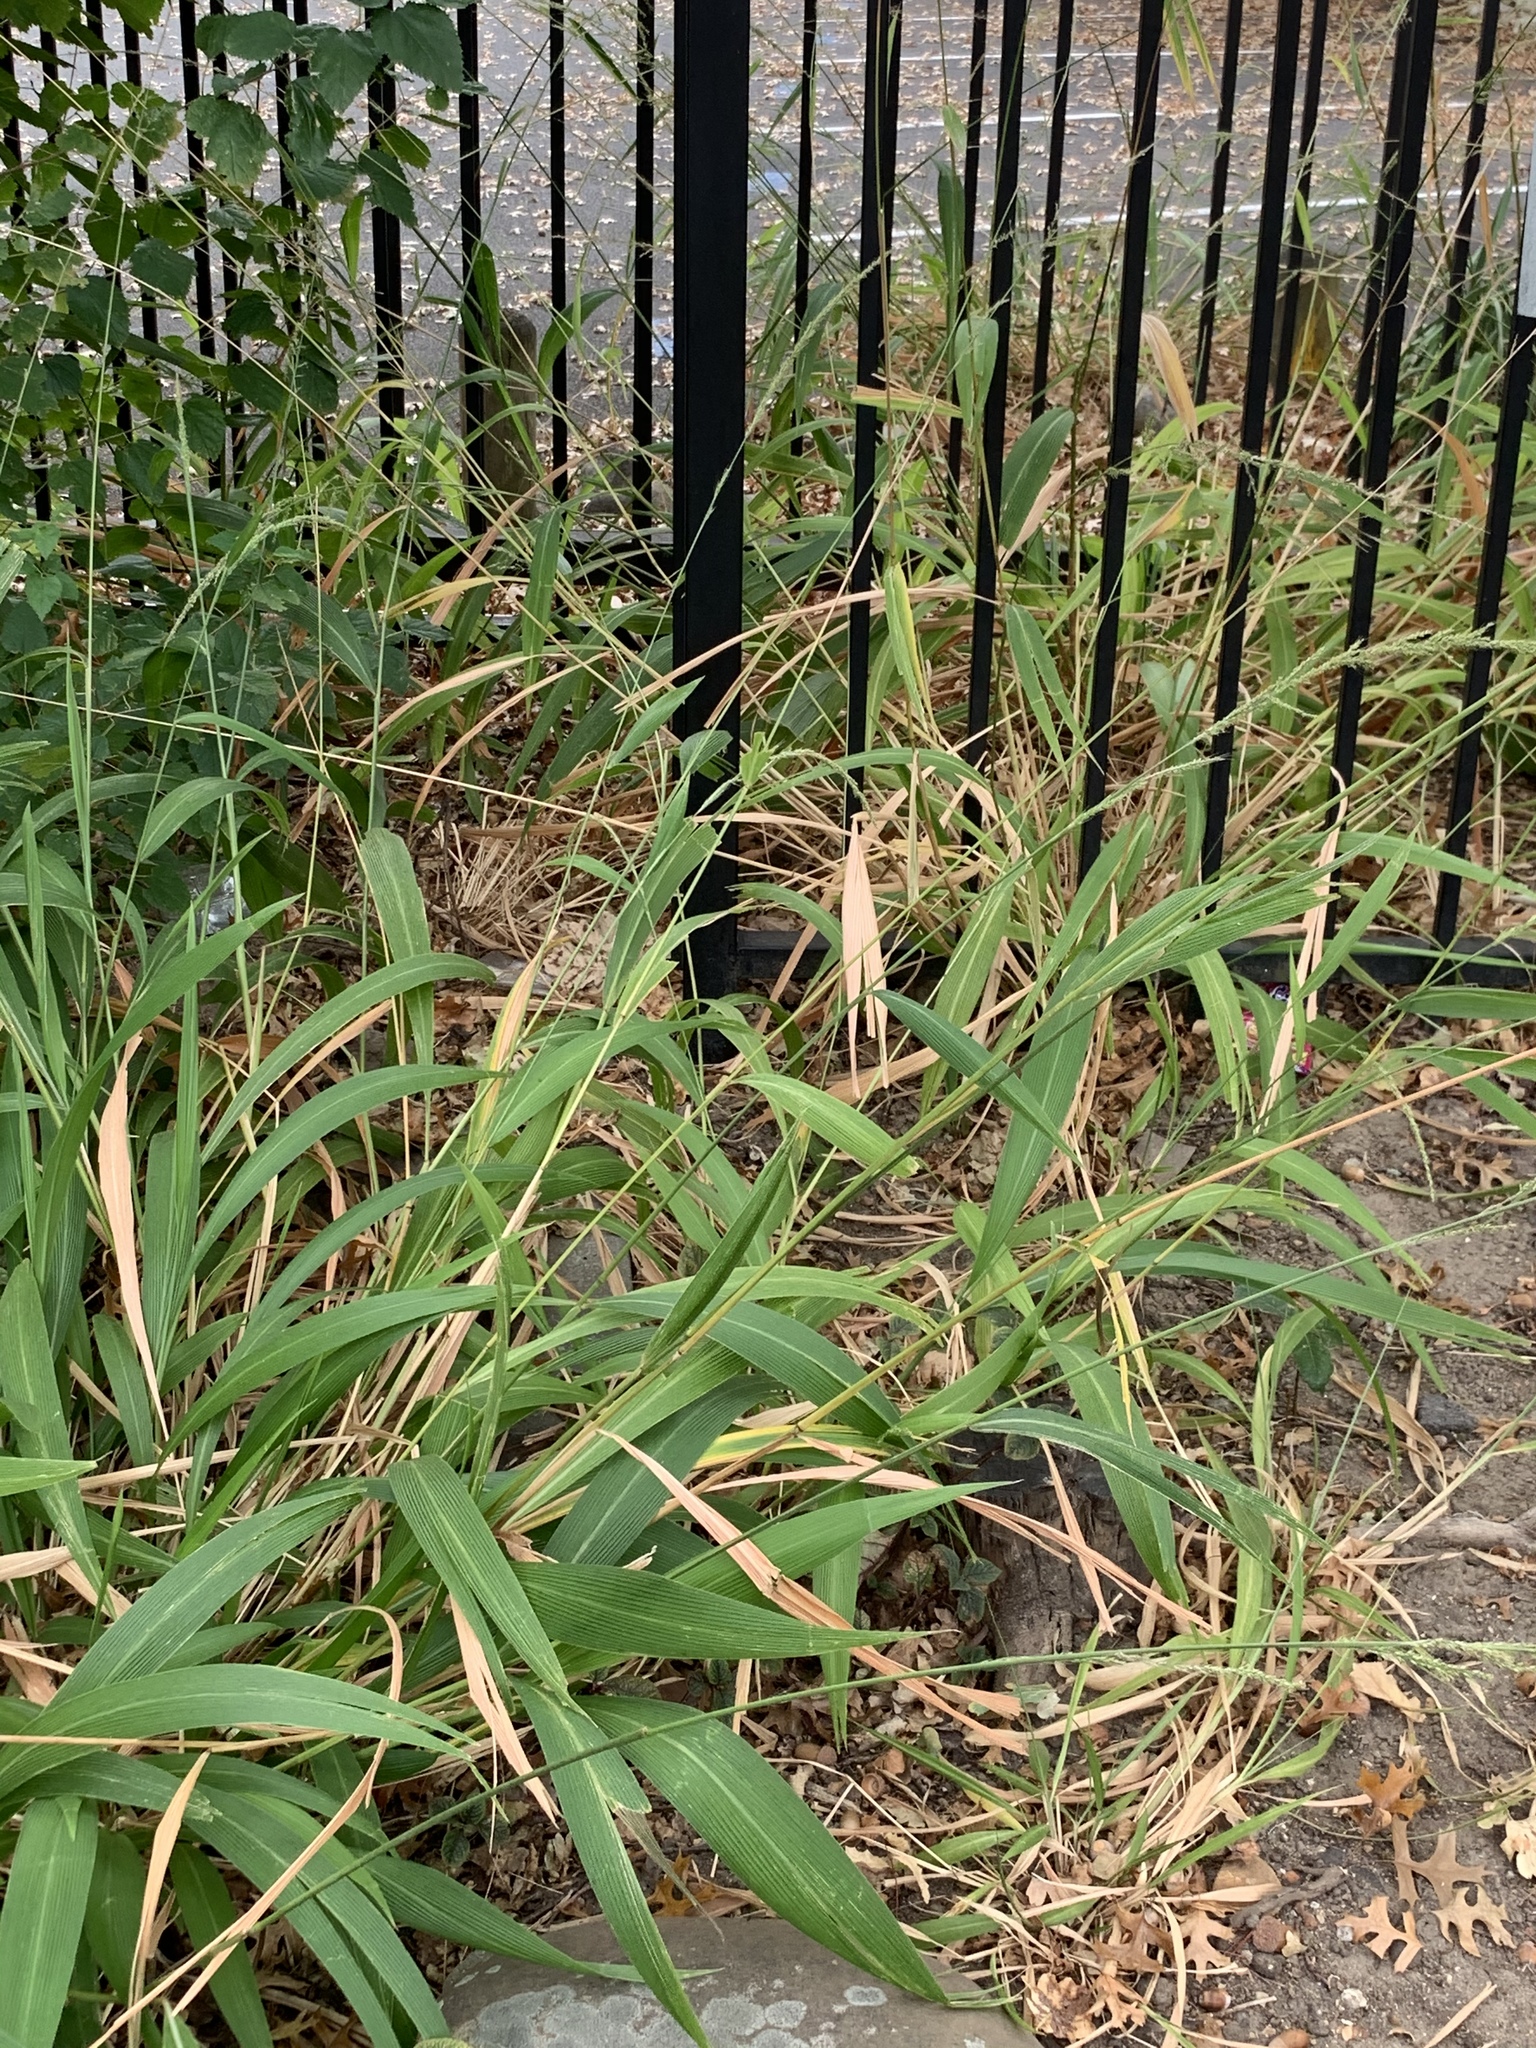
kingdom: Plantae
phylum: Tracheophyta
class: Liliopsida
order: Poales
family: Poaceae
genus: Setaria
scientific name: Setaria megaphylla
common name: Bigleaf bristlegrass
